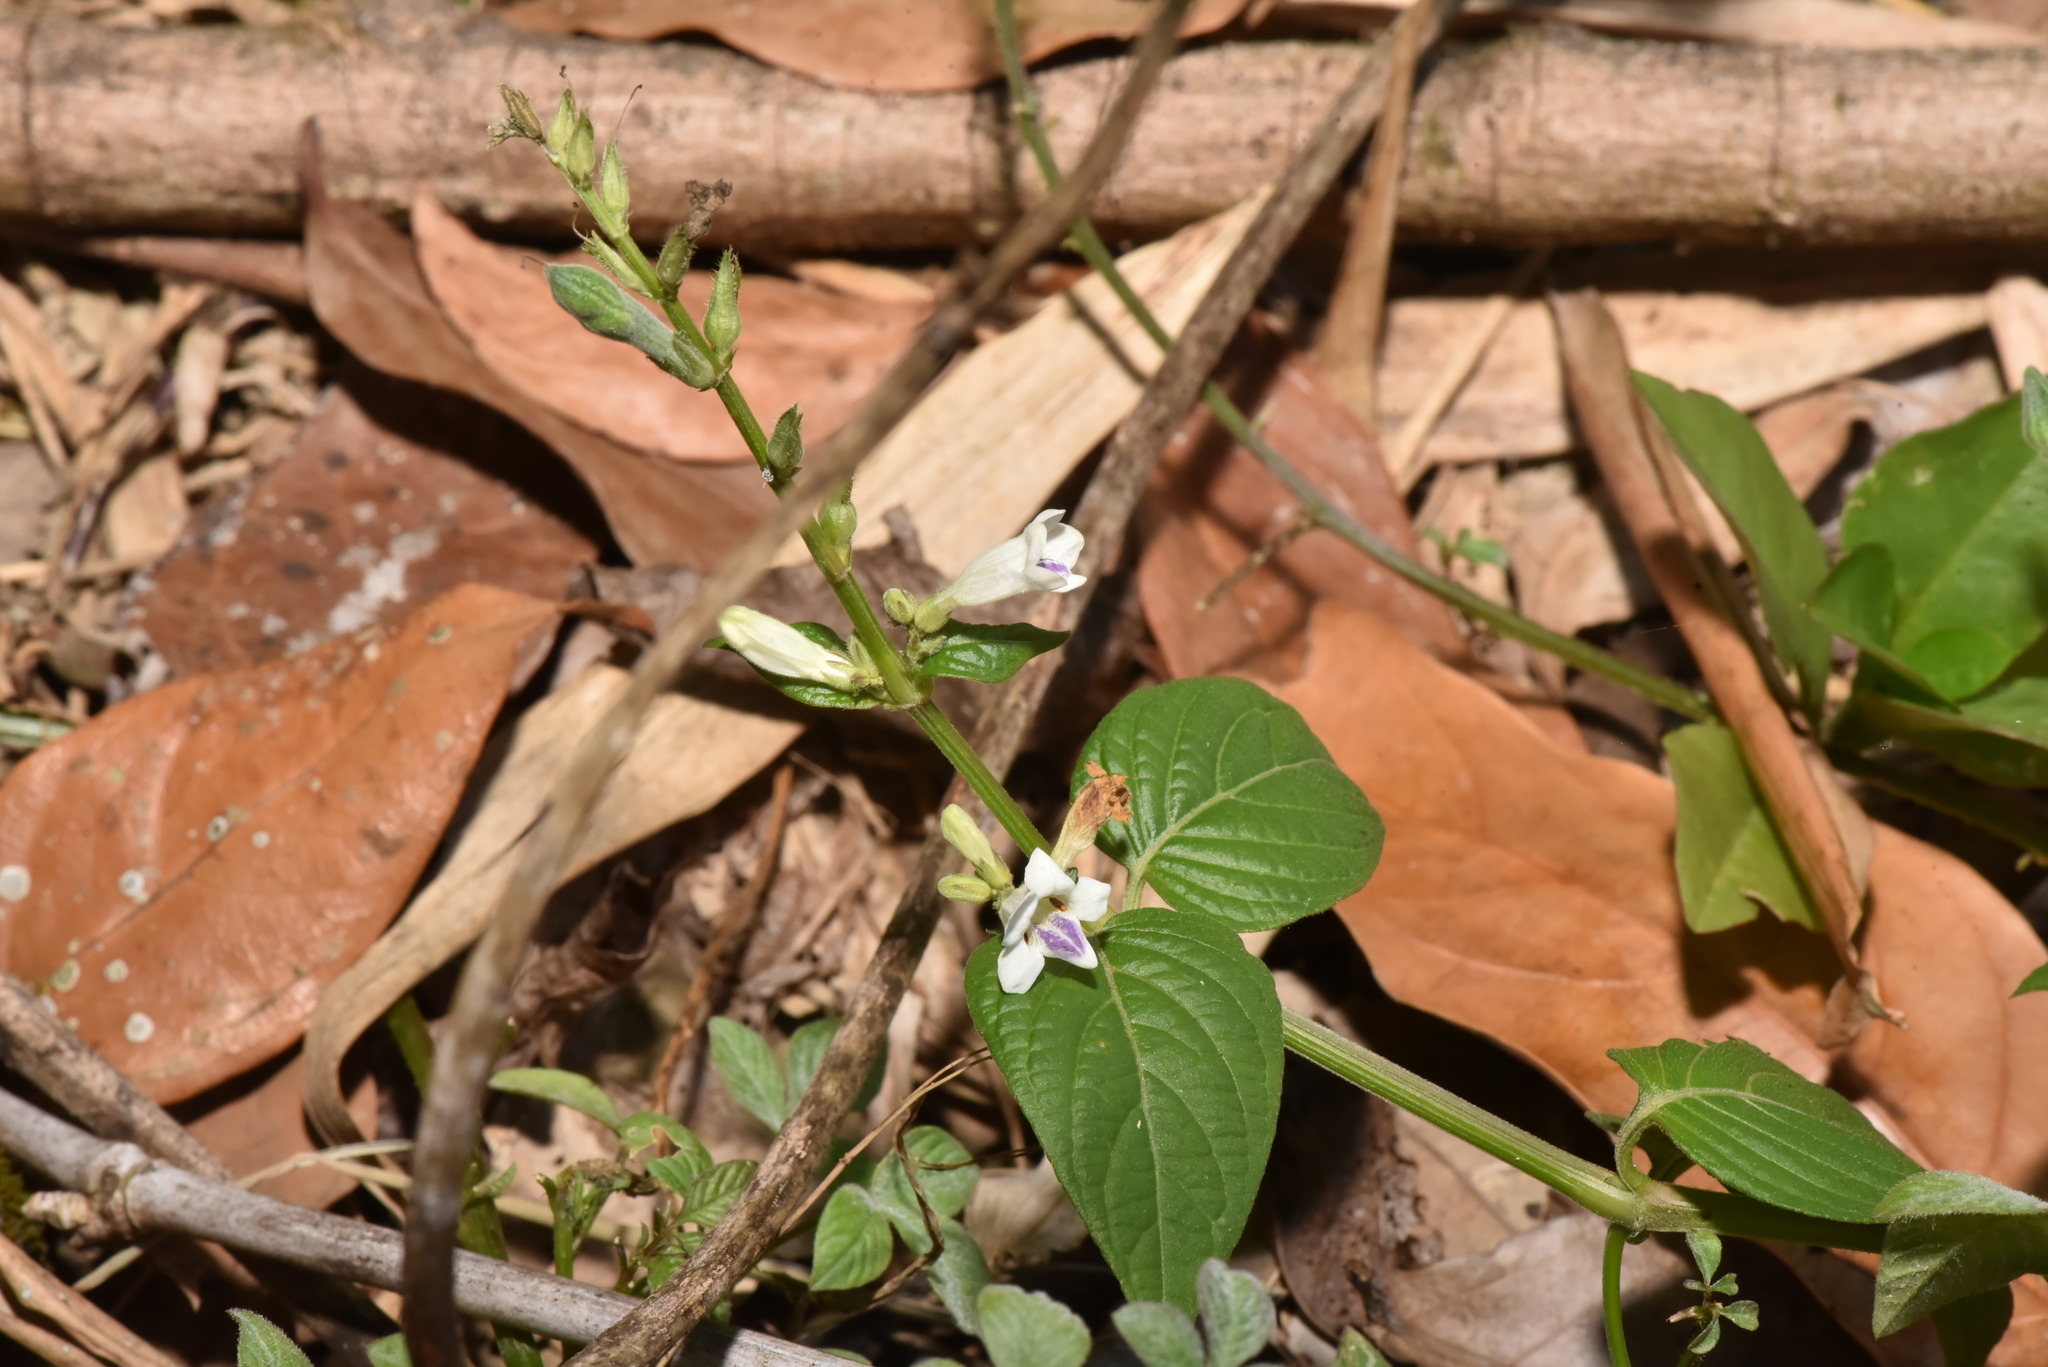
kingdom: Plantae
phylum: Tracheophyta
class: Magnoliopsida
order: Lamiales
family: Acanthaceae
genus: Asystasia
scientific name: Asystasia intrusa
